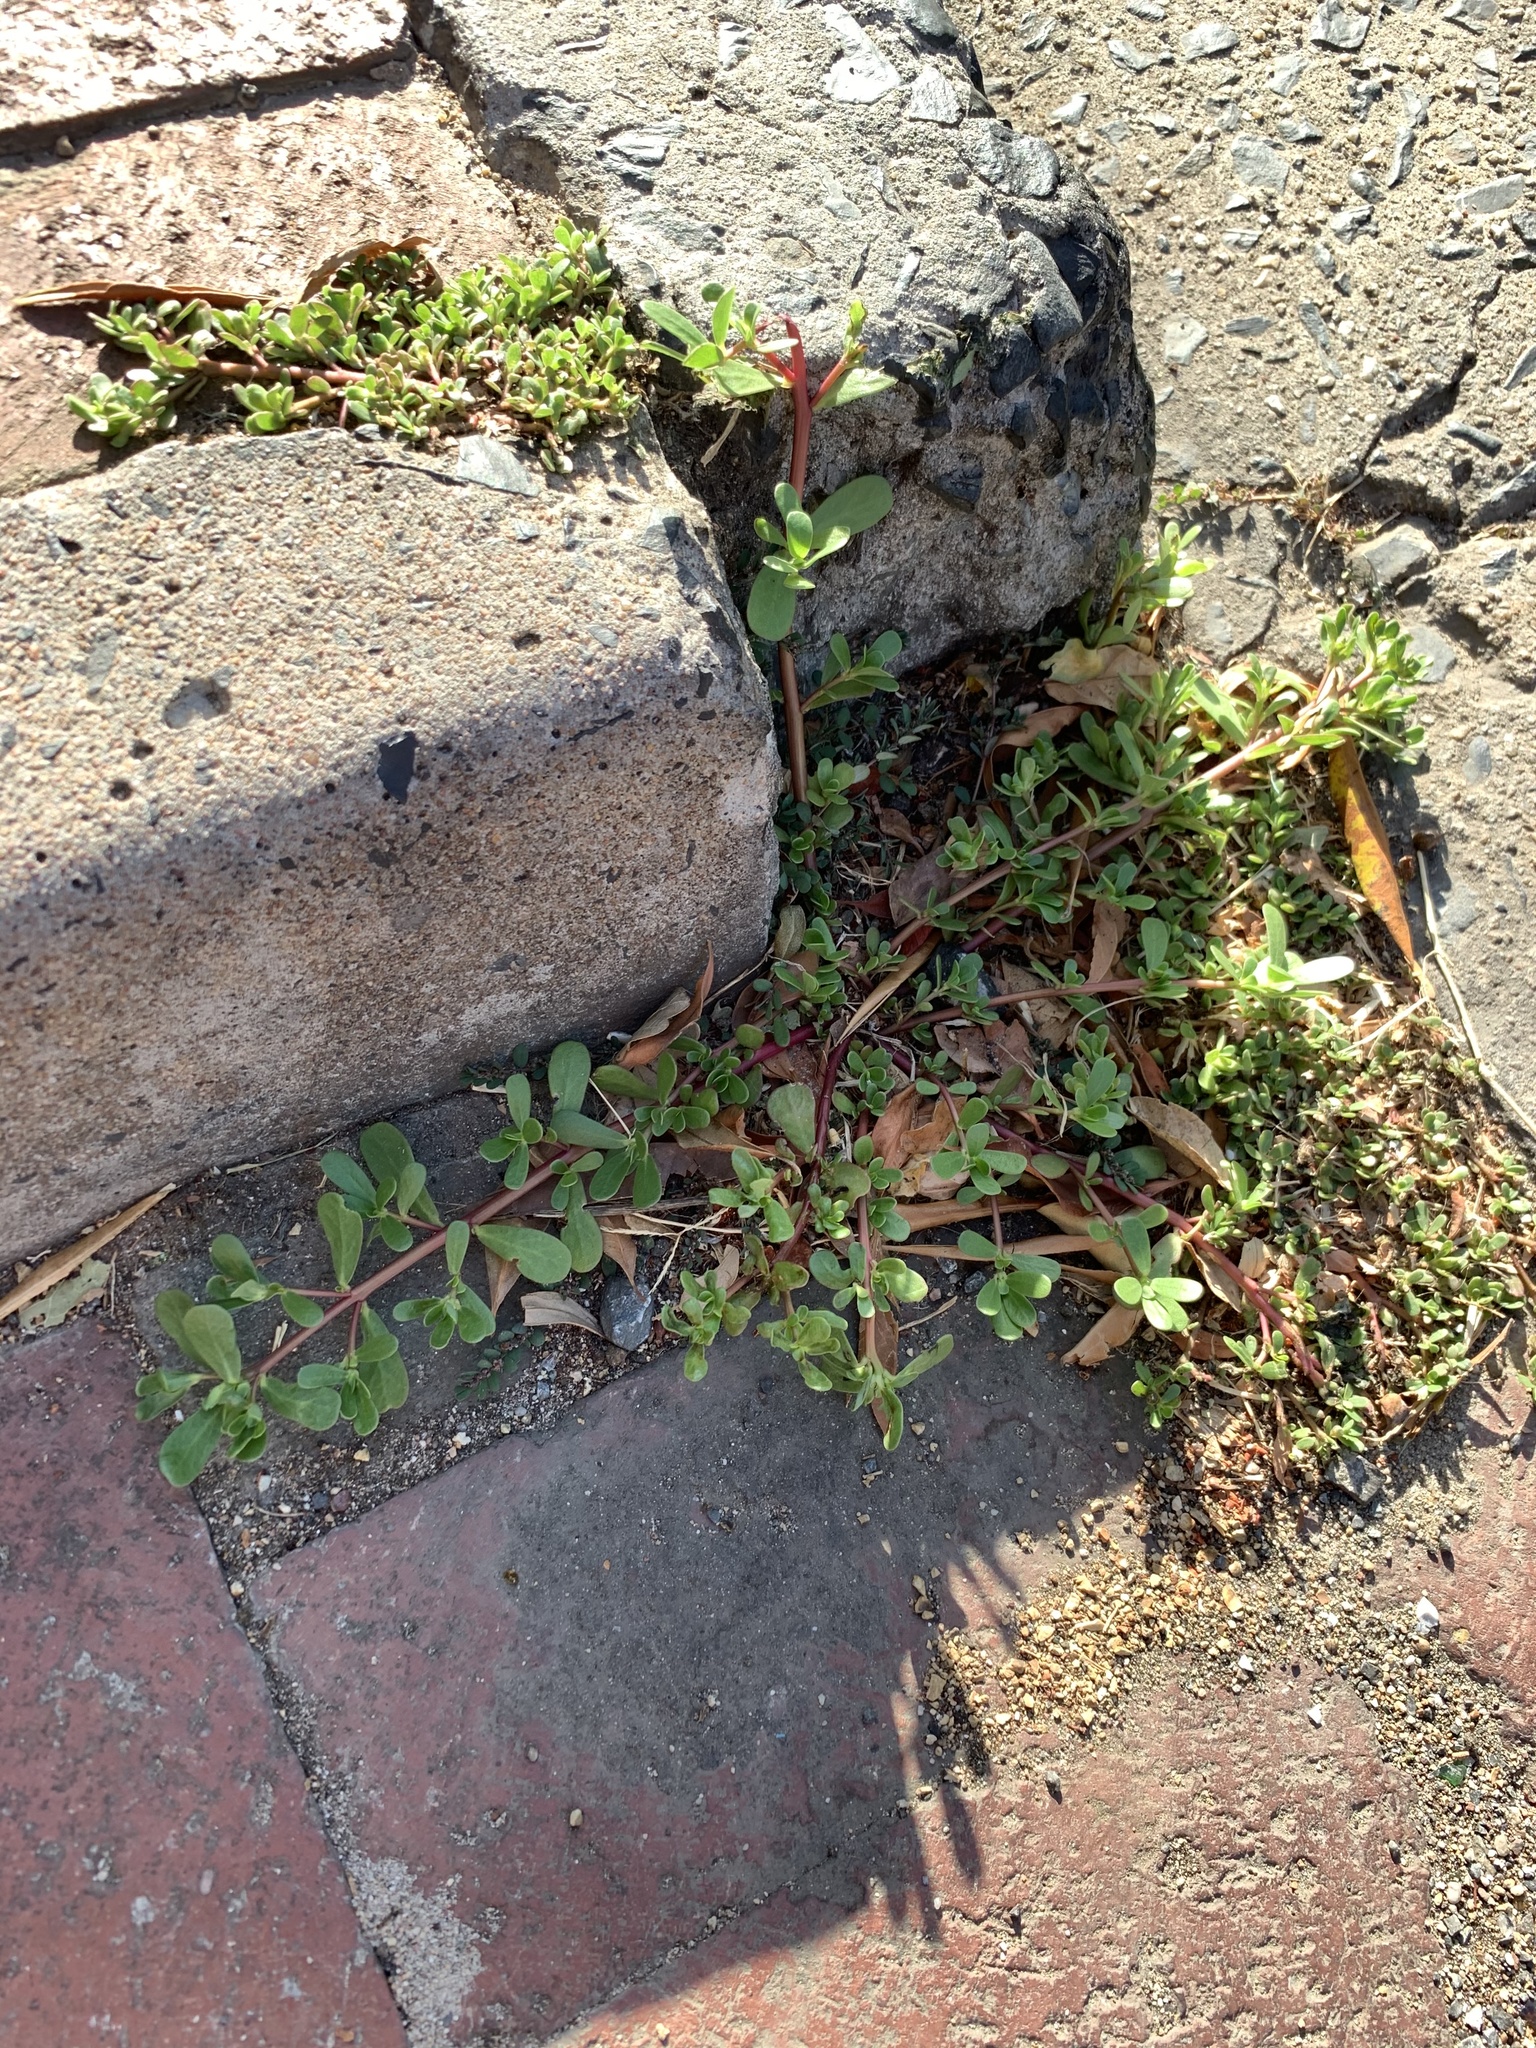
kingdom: Plantae
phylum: Tracheophyta
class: Magnoliopsida
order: Caryophyllales
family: Portulacaceae
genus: Portulaca
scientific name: Portulaca oleracea
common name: Common purslane
